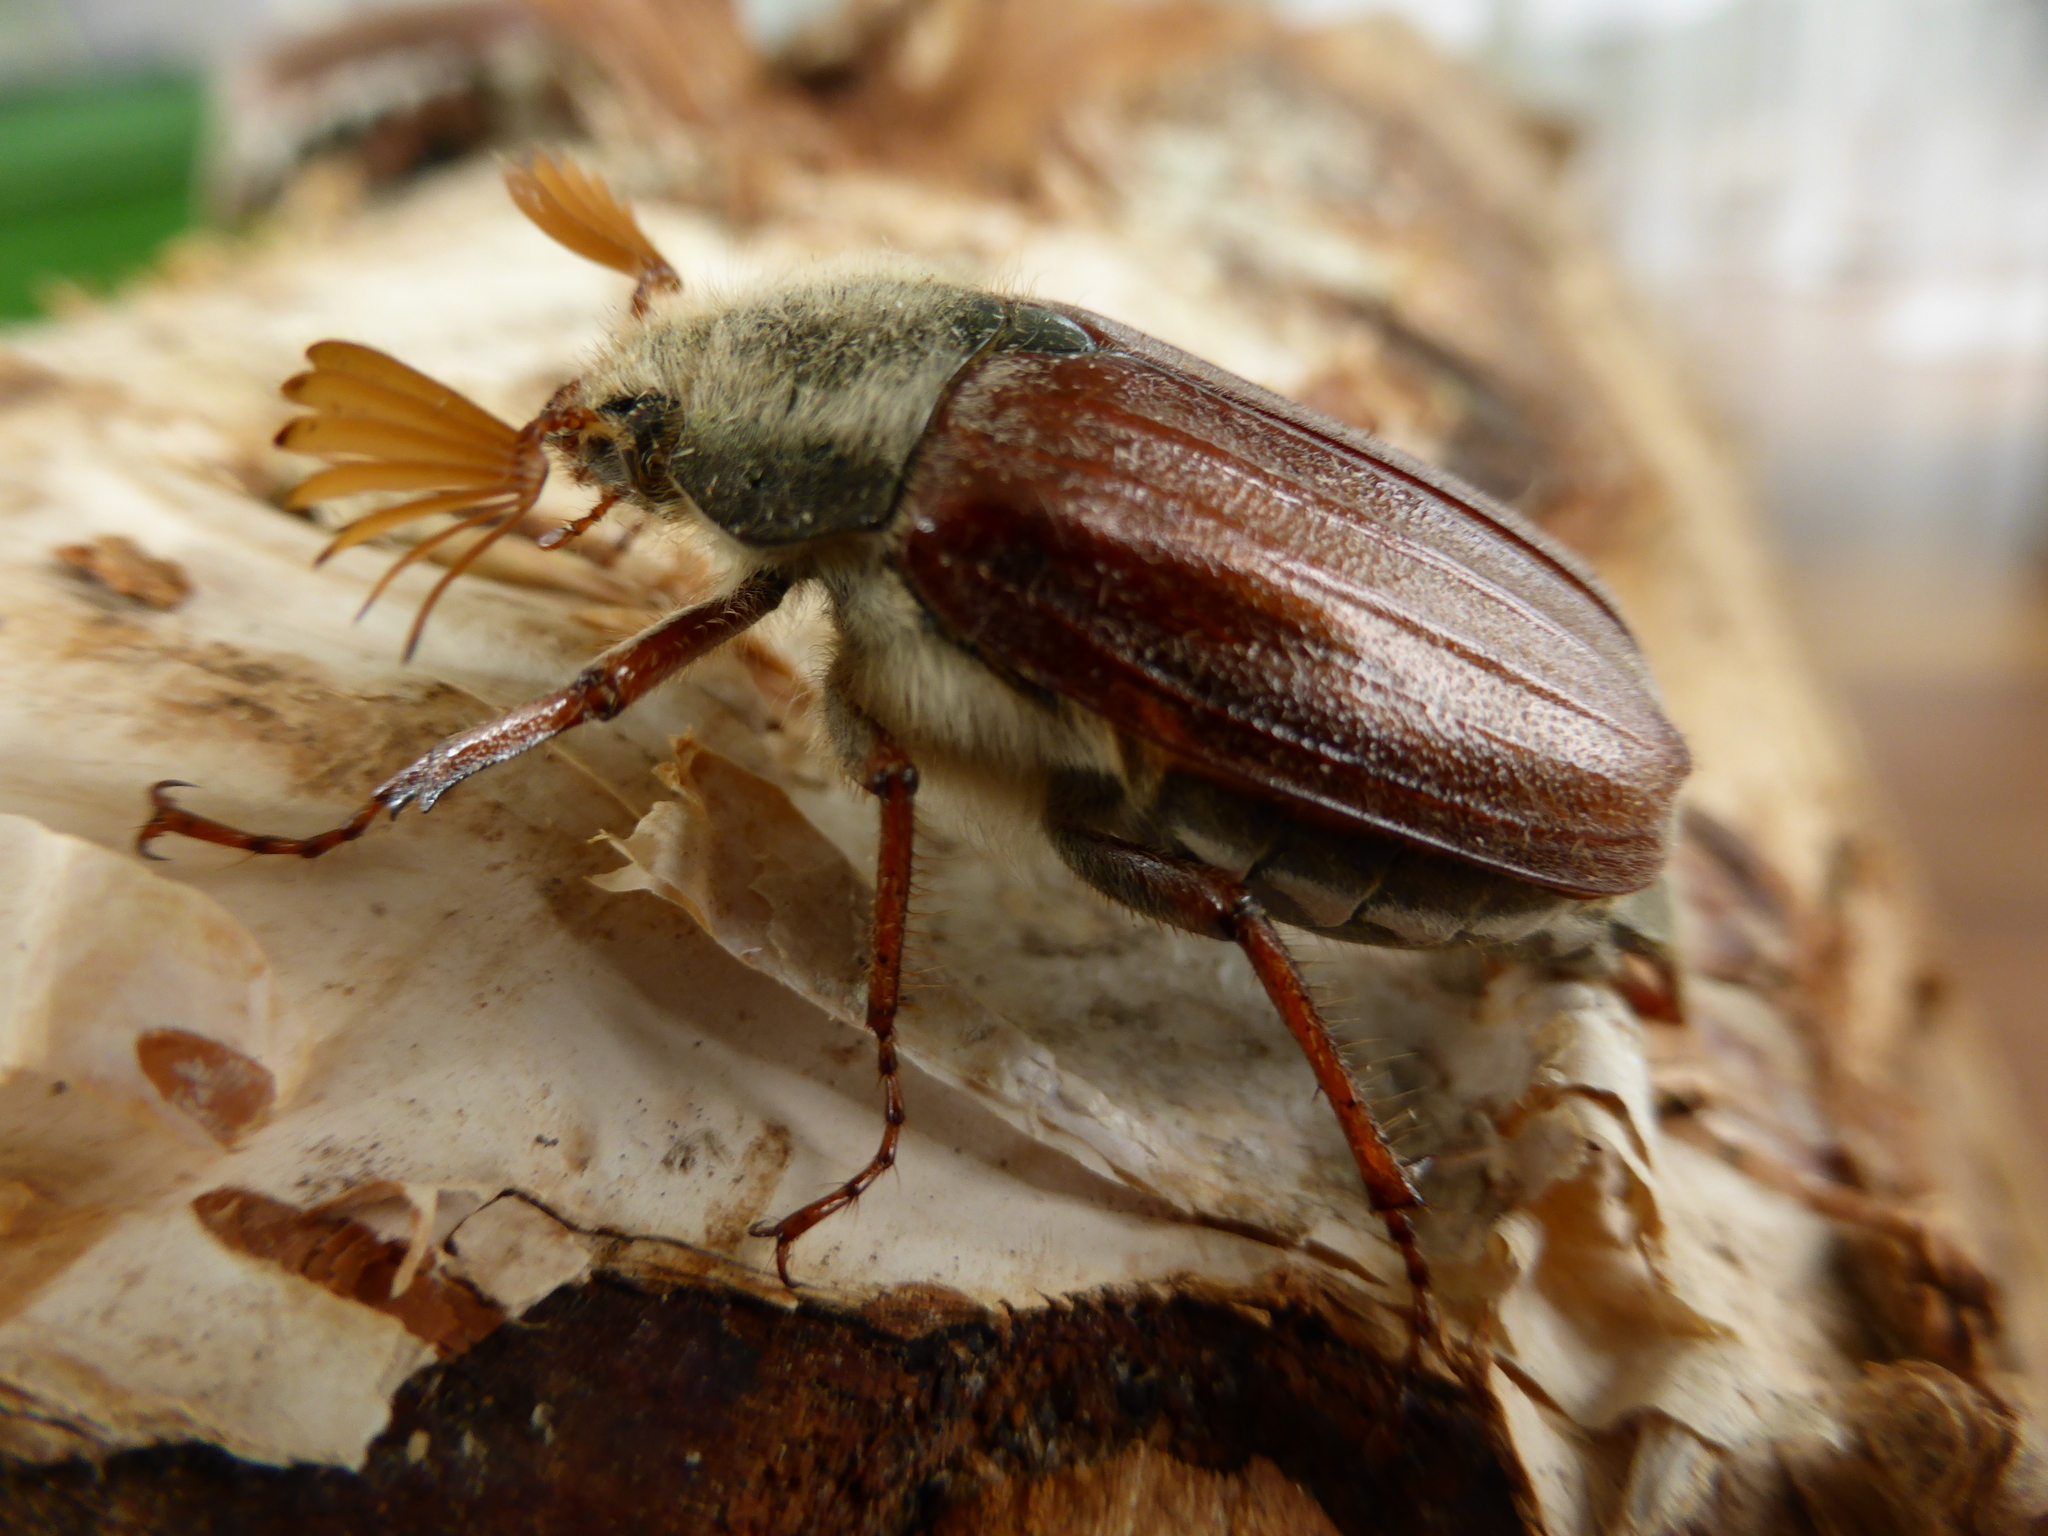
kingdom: Animalia
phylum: Arthropoda
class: Insecta
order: Coleoptera
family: Scarabaeidae
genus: Melolontha
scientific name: Melolontha melolontha
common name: Cockchafer maybeetle
